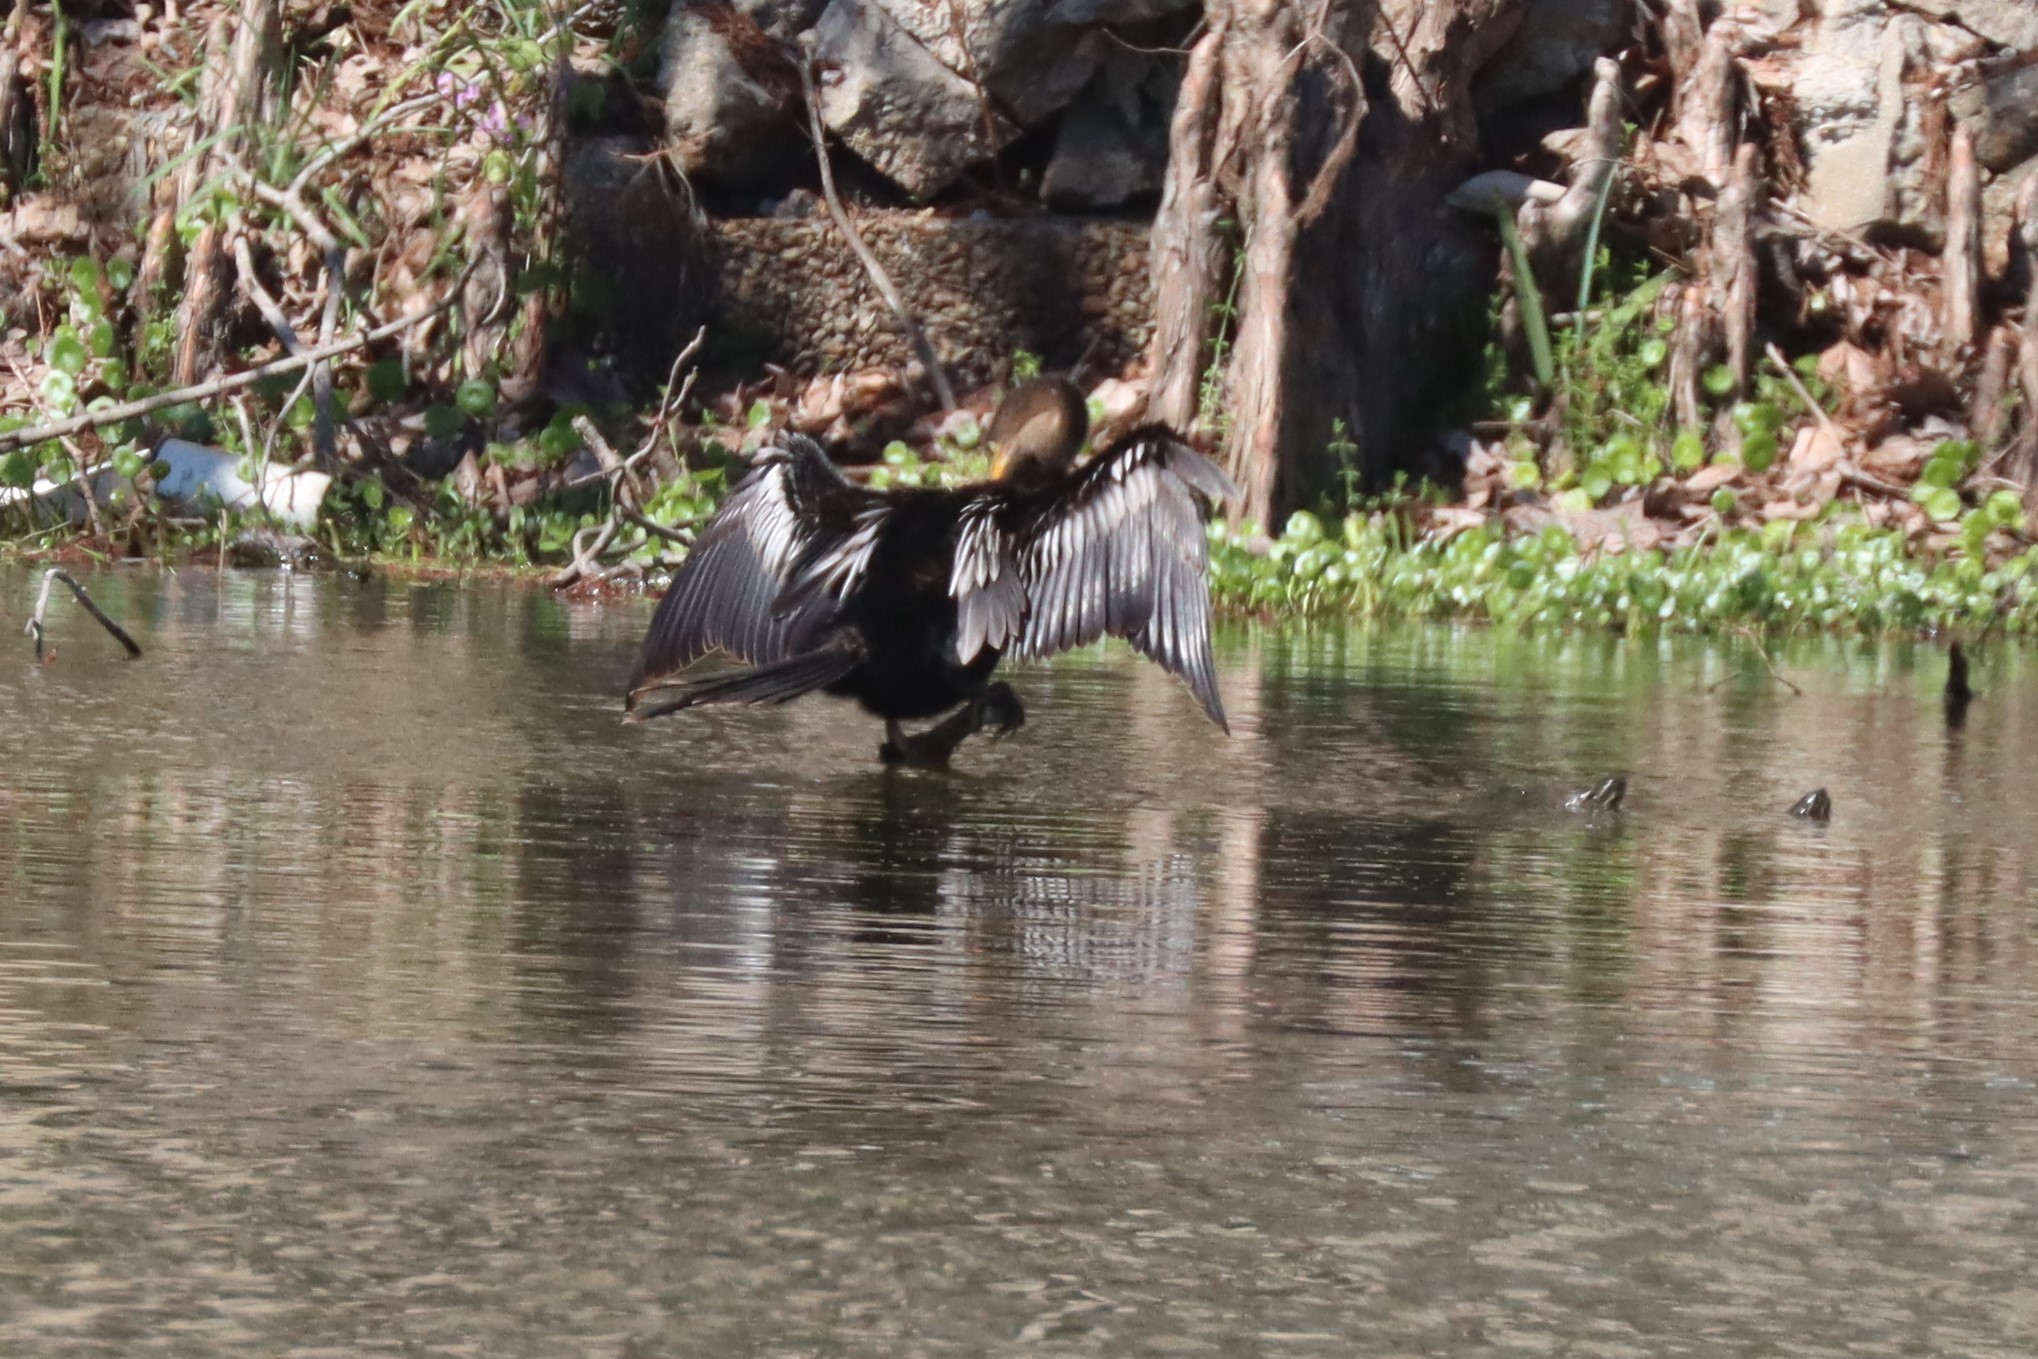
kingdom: Animalia
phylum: Chordata
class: Aves
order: Suliformes
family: Anhingidae
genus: Anhinga
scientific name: Anhinga anhinga
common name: Anhinga
